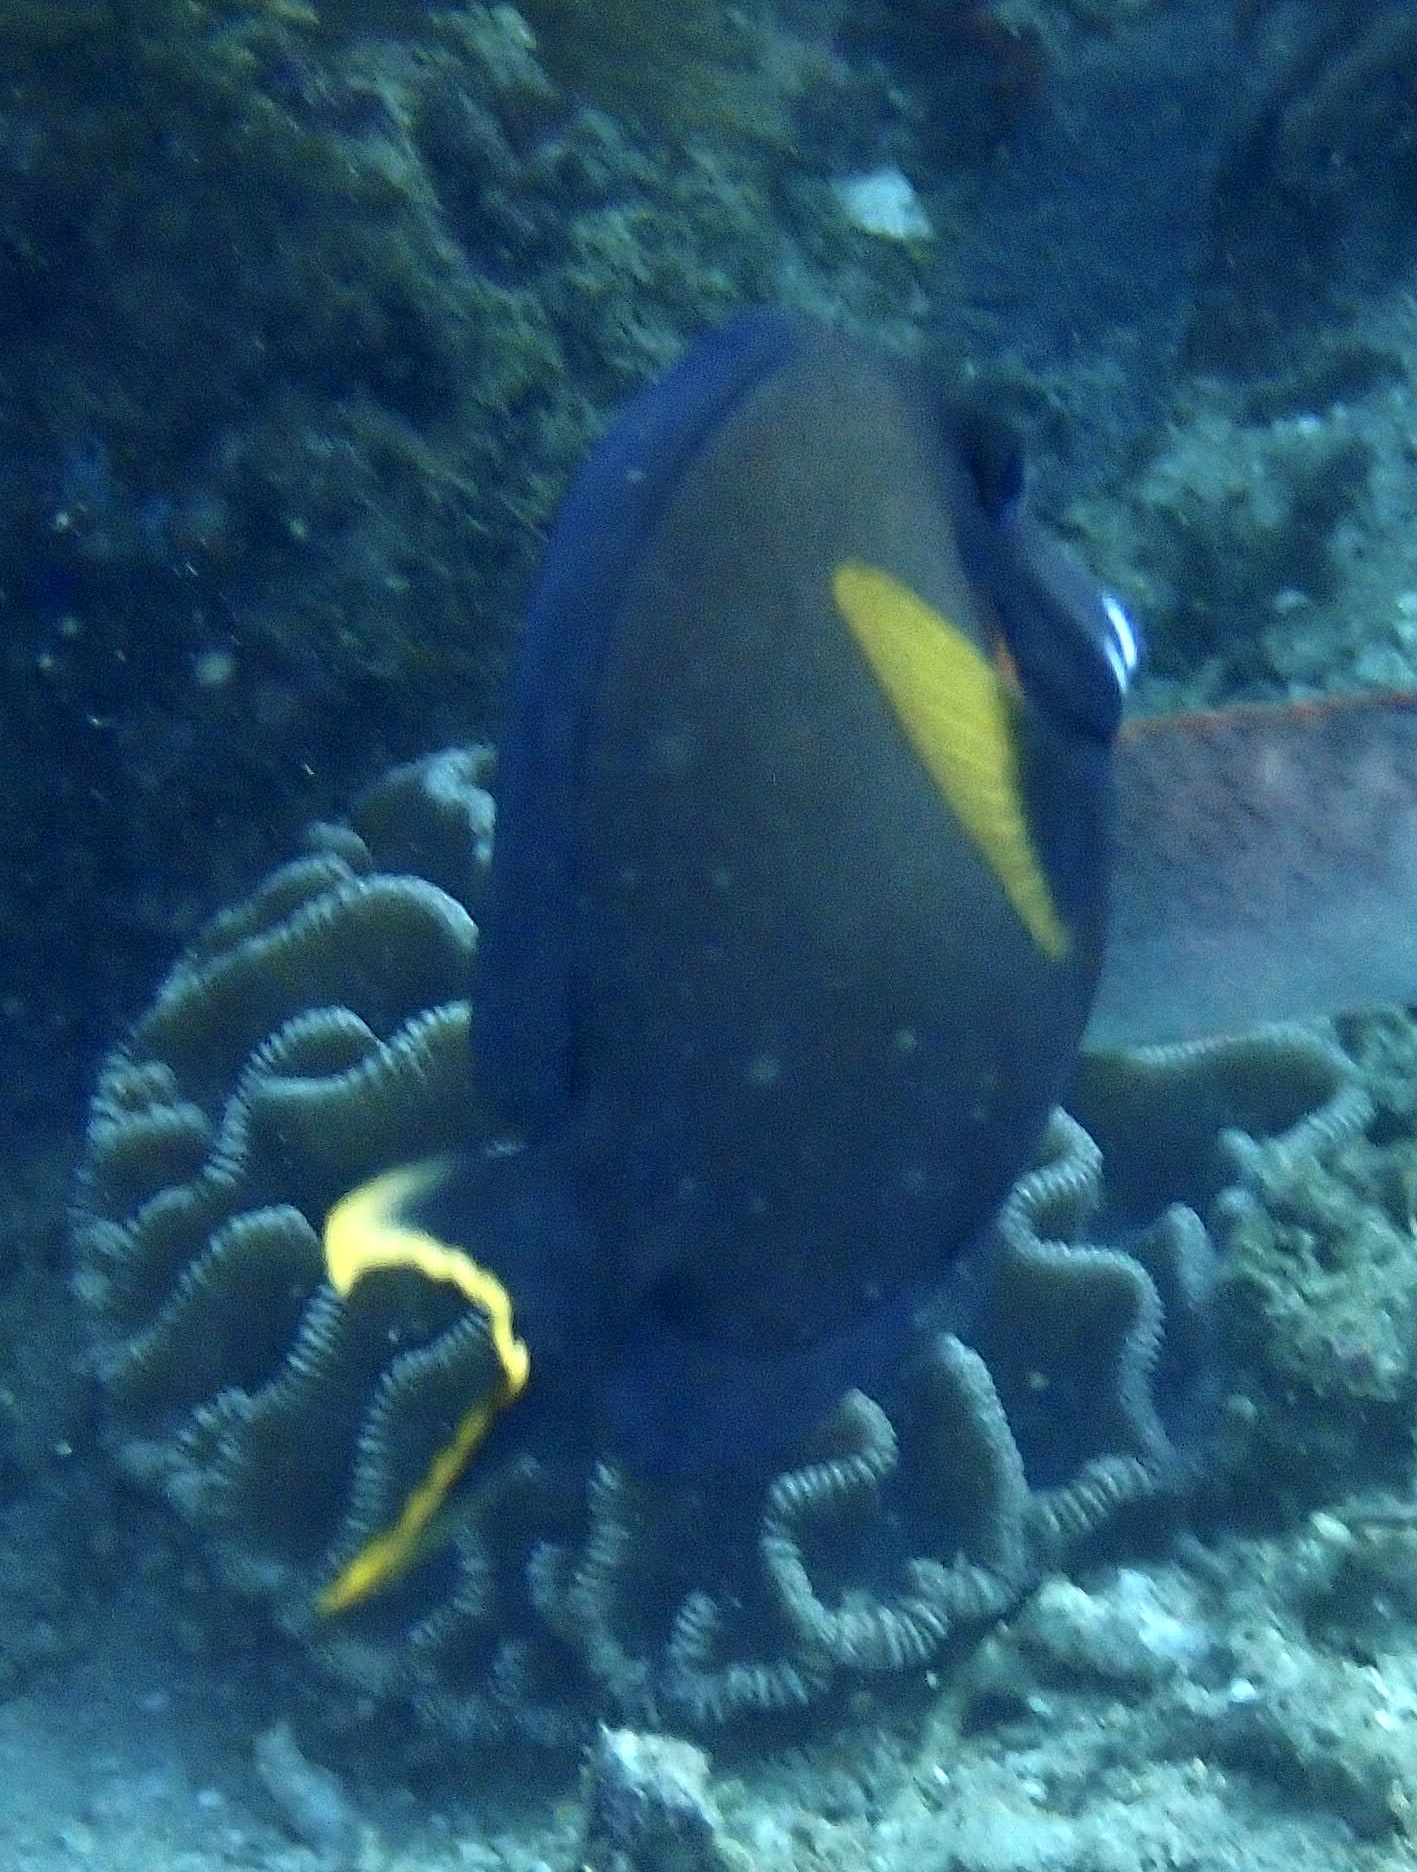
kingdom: Animalia
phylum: Chordata
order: Perciformes
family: Acanthuridae
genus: Acanthurus
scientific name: Acanthurus pyroferus
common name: Chocolate surgeonfish
